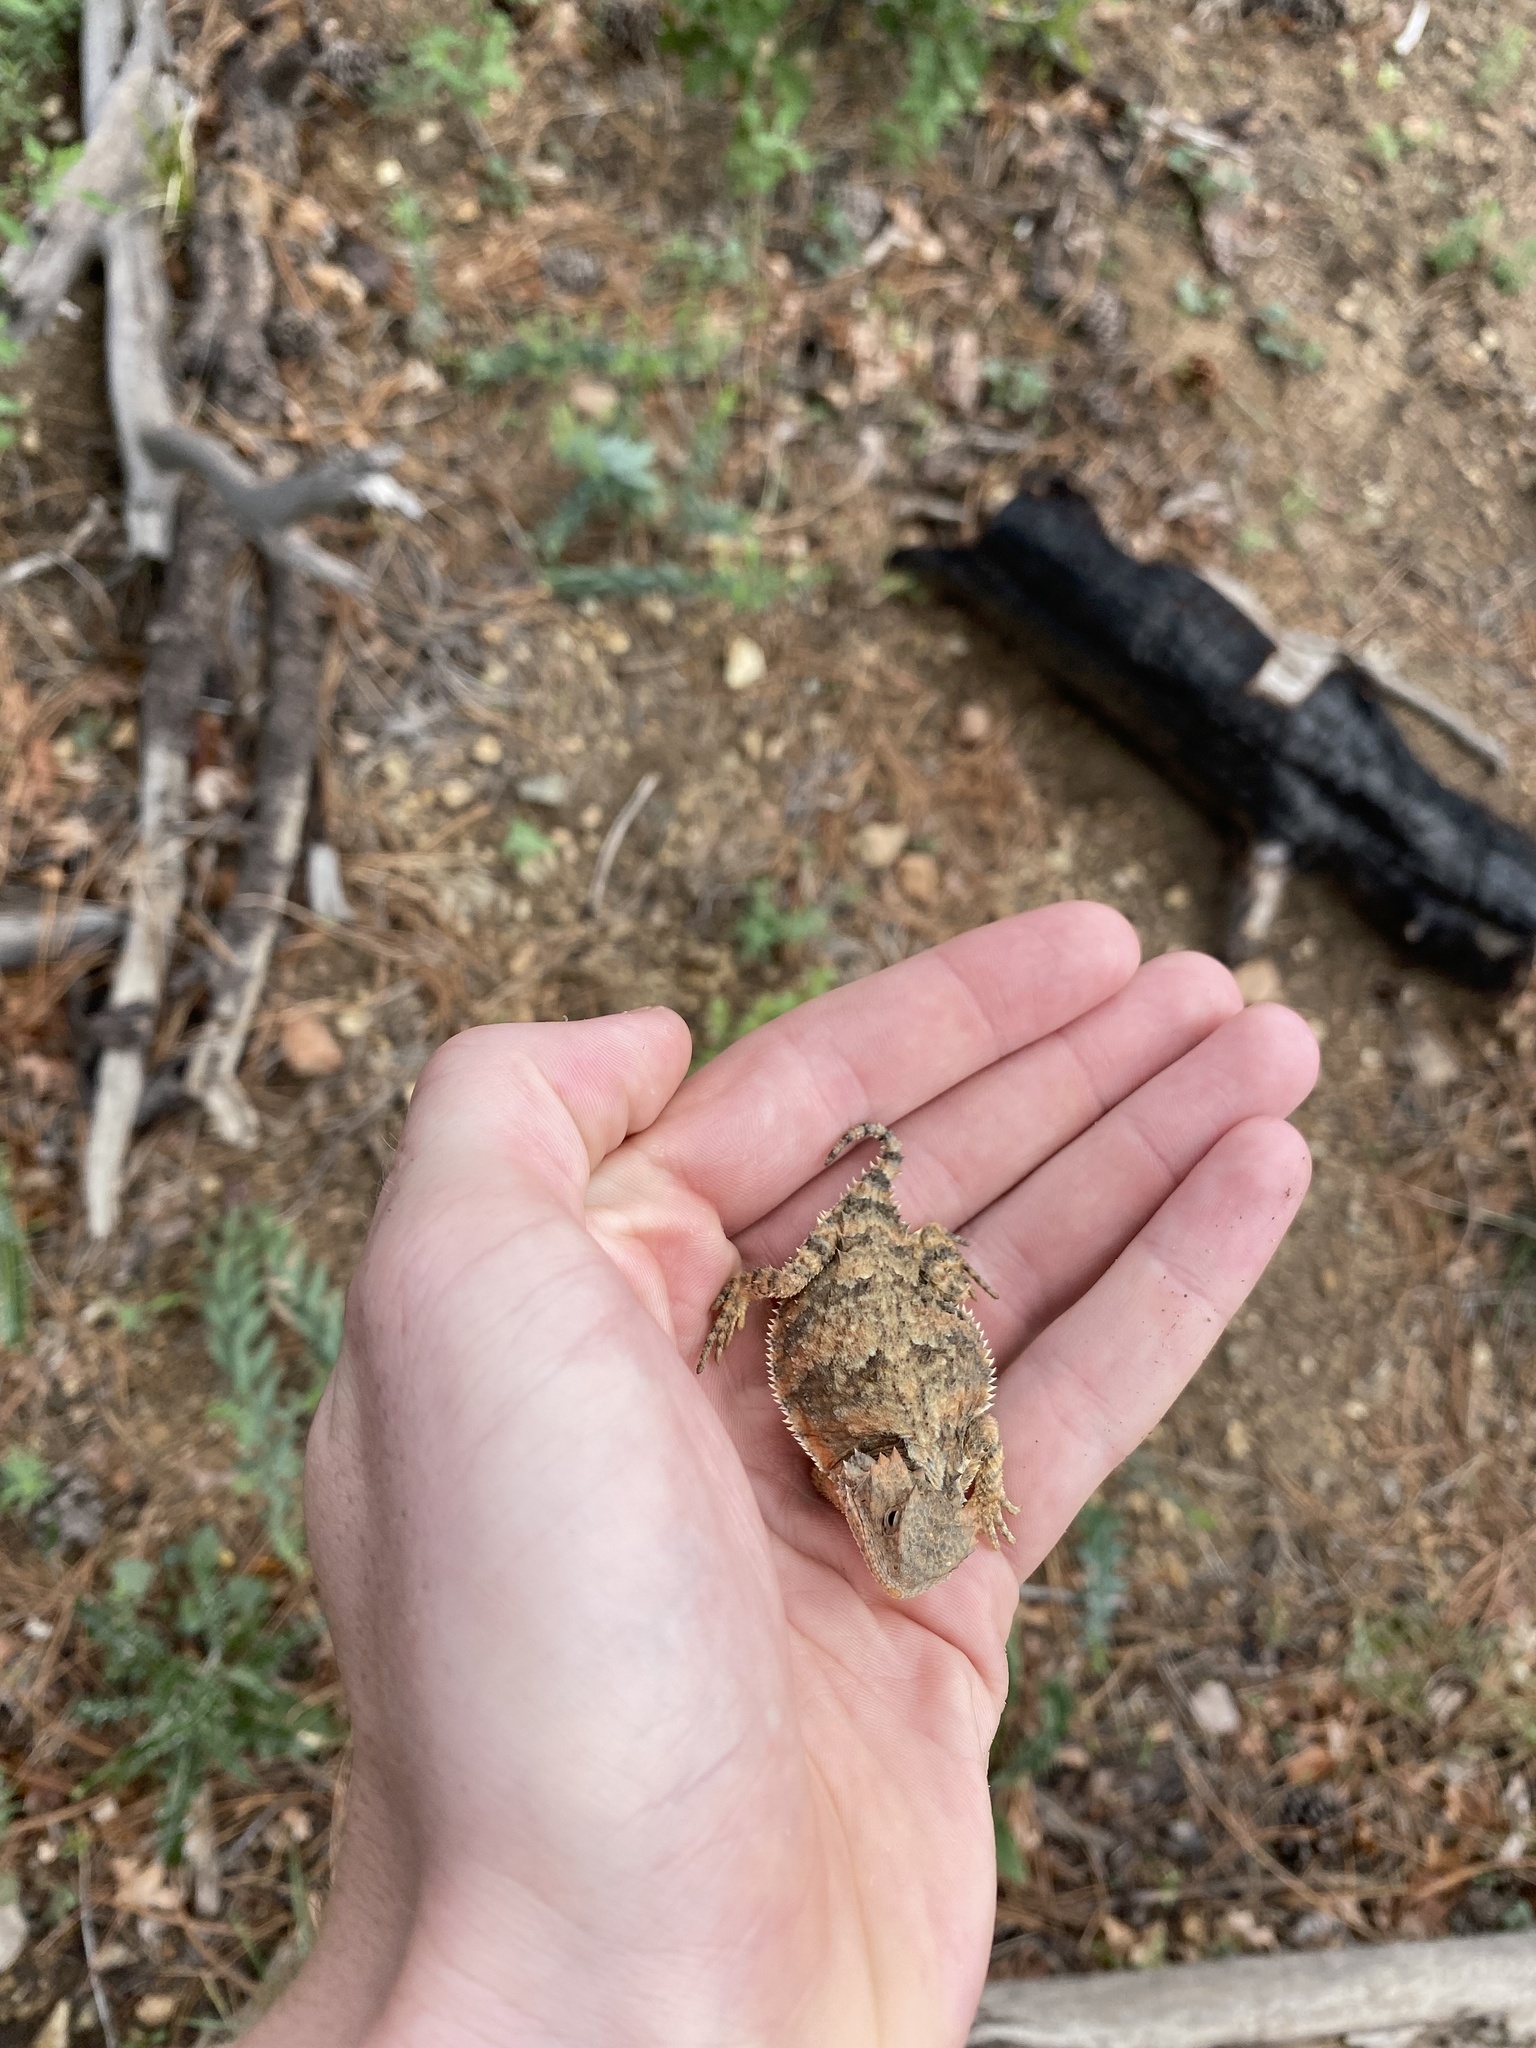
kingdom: Animalia
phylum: Chordata
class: Squamata
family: Phrynosomatidae
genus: Phrynosoma
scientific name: Phrynosoma hernandesi
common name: Greater short-horned lizard
